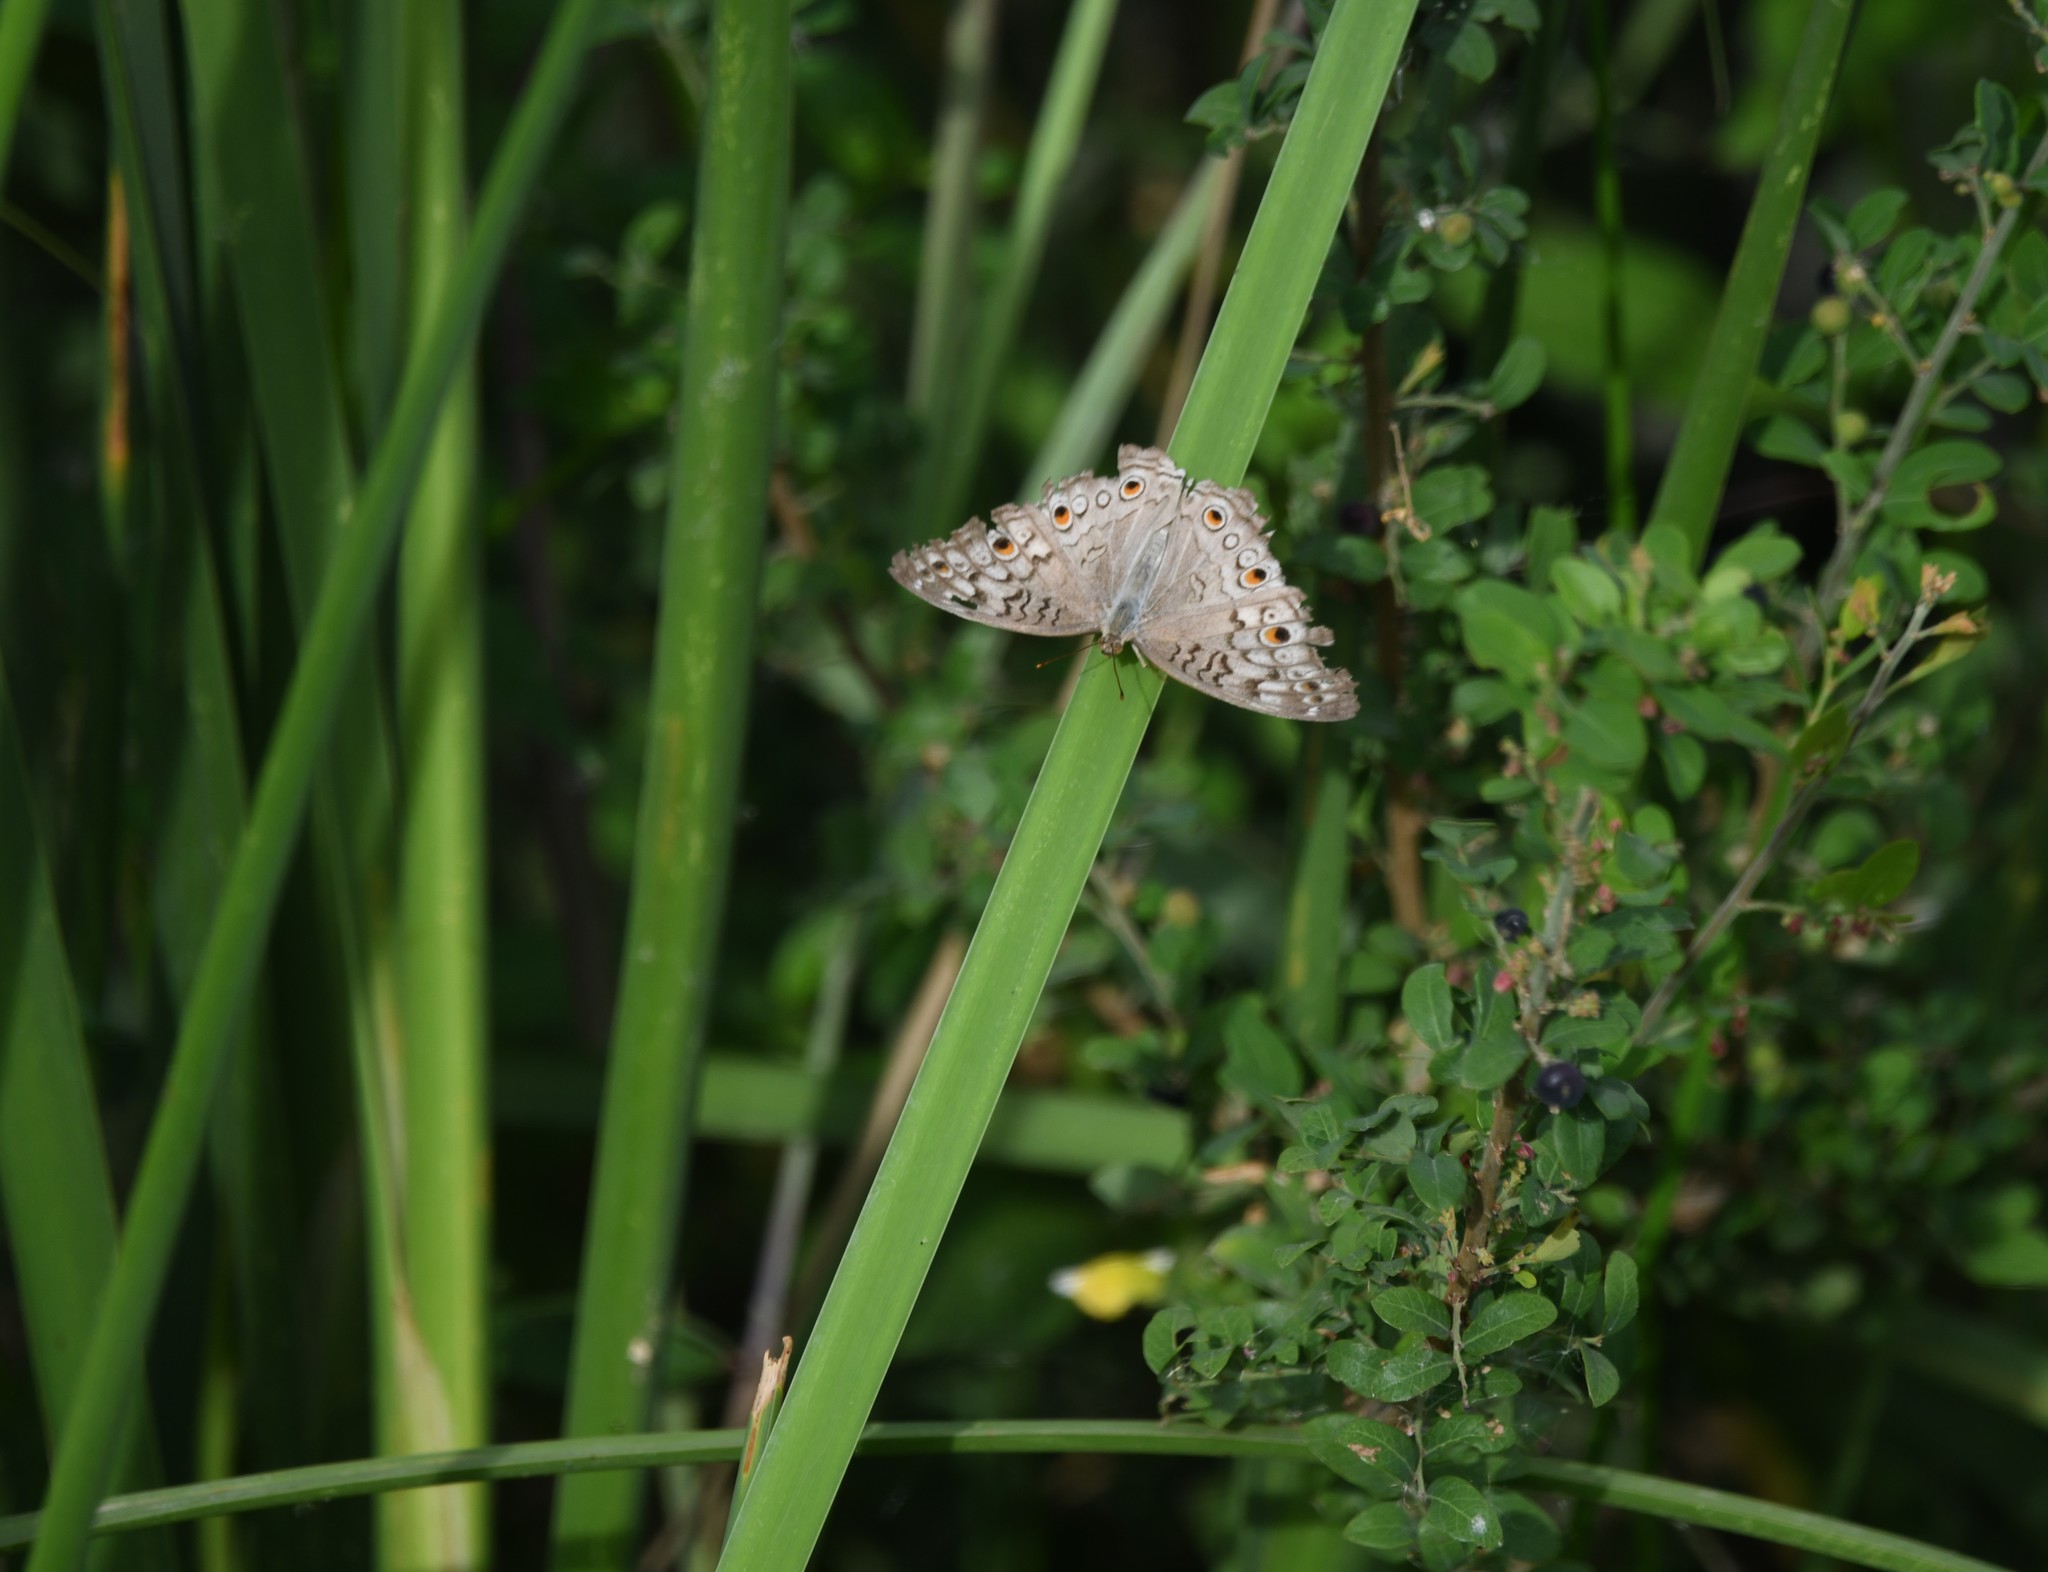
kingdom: Animalia
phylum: Arthropoda
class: Insecta
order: Lepidoptera
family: Nymphalidae
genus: Junonia
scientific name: Junonia atlites
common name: Grey pansy
